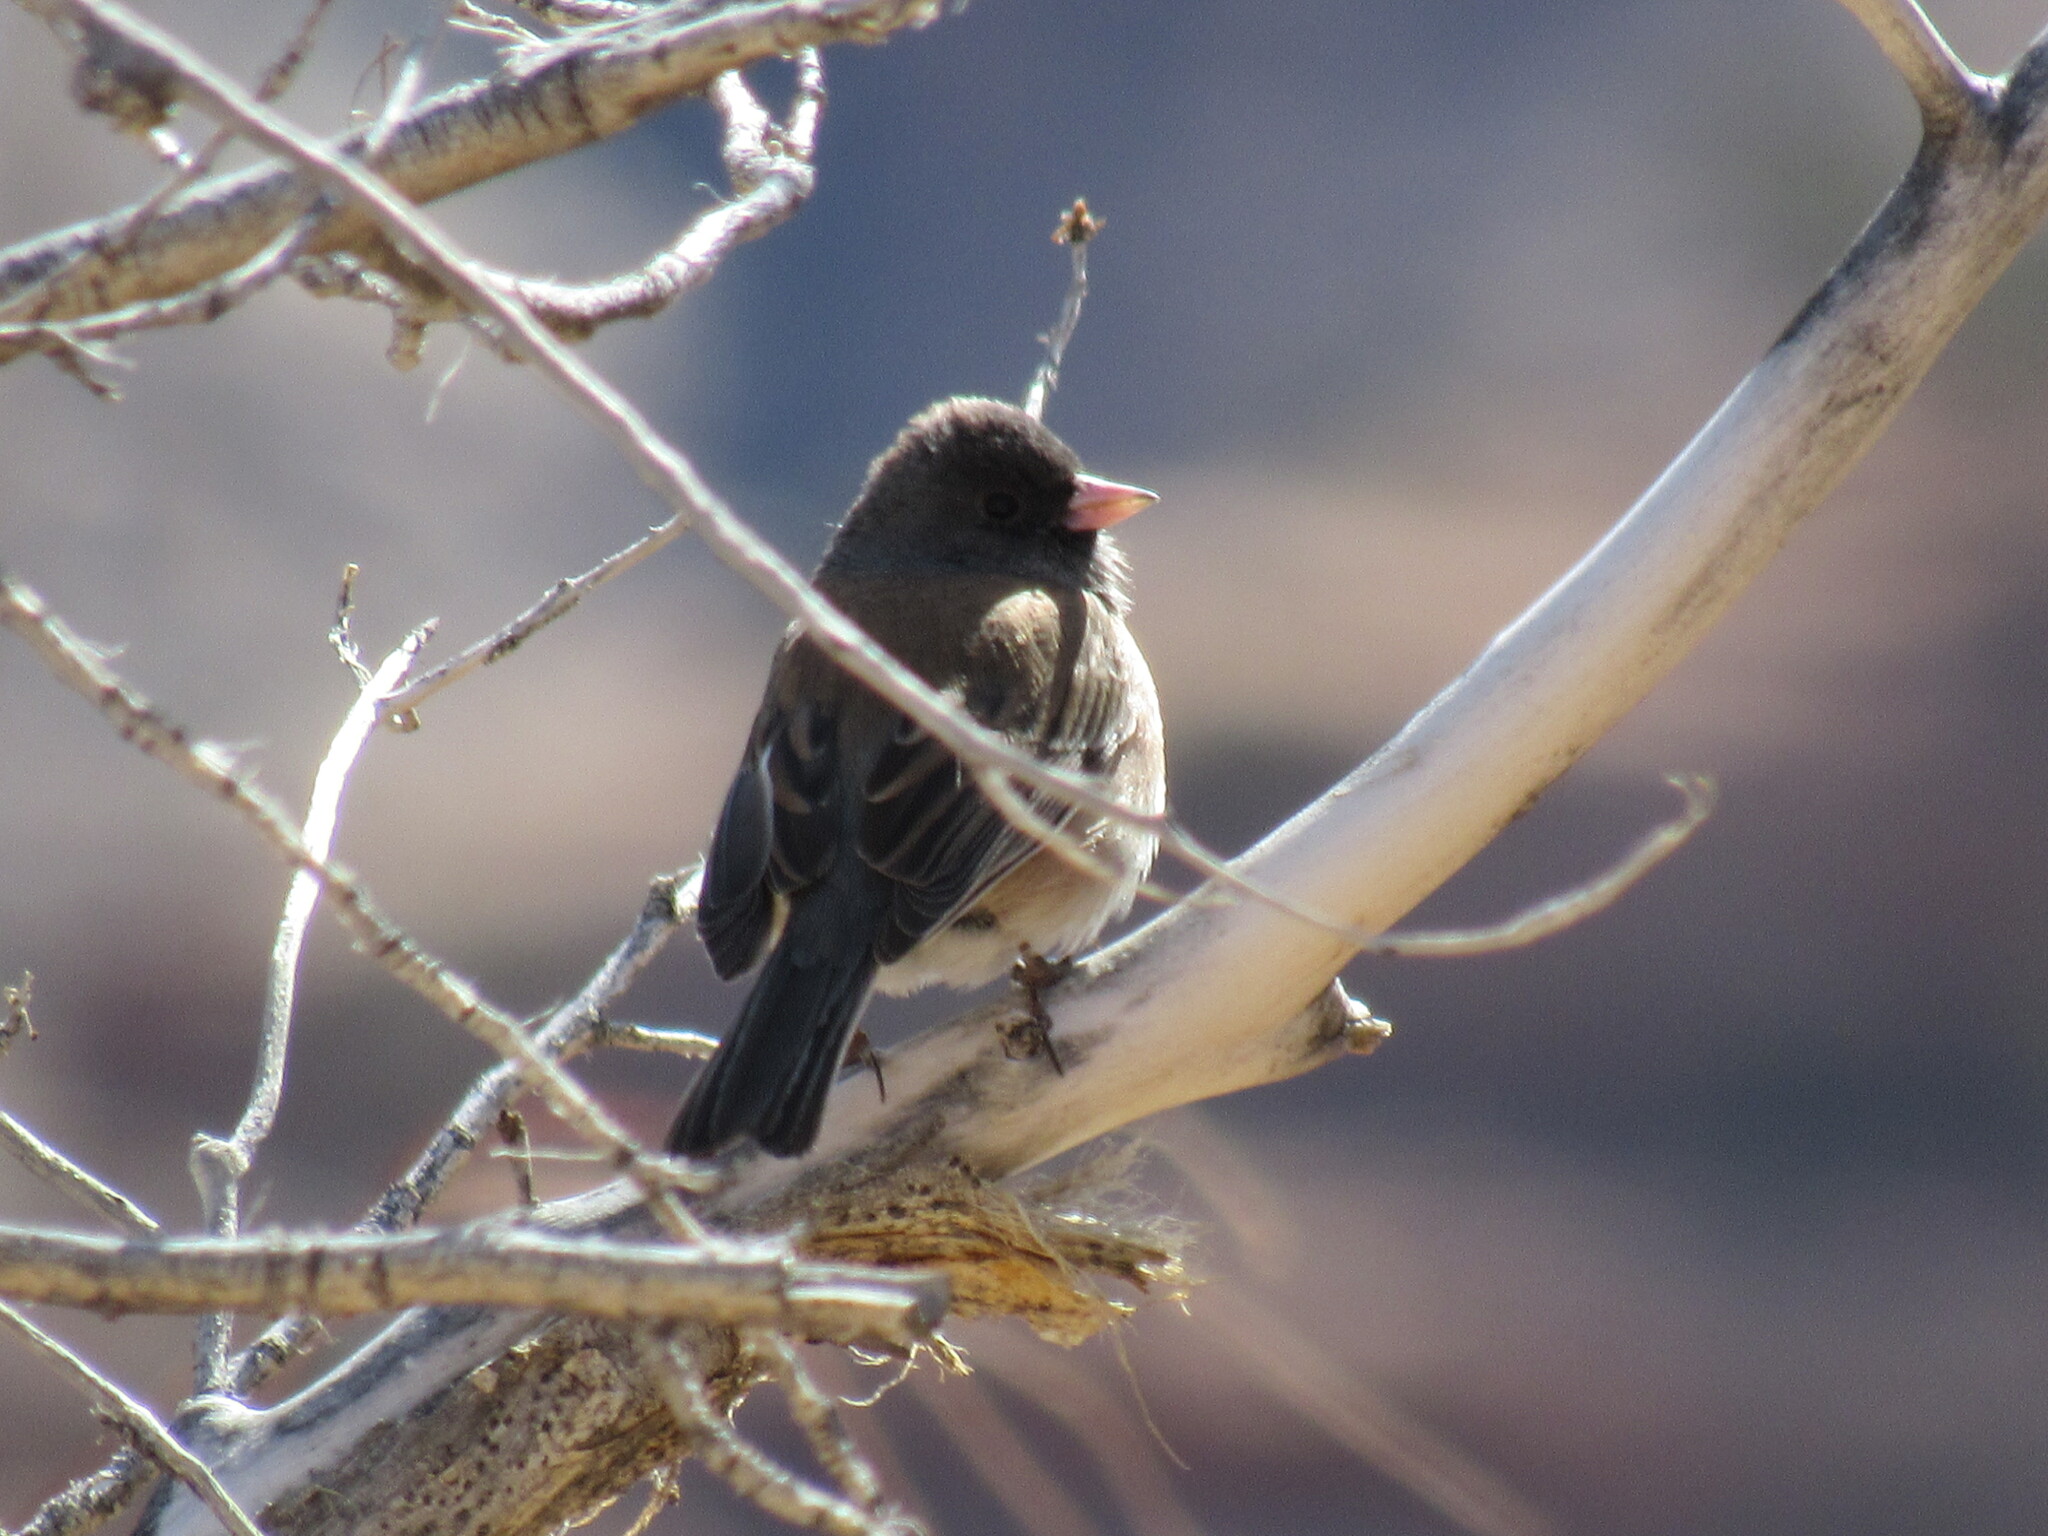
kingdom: Animalia
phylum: Chordata
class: Aves
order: Passeriformes
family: Passerellidae
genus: Junco
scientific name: Junco hyemalis
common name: Dark-eyed junco
